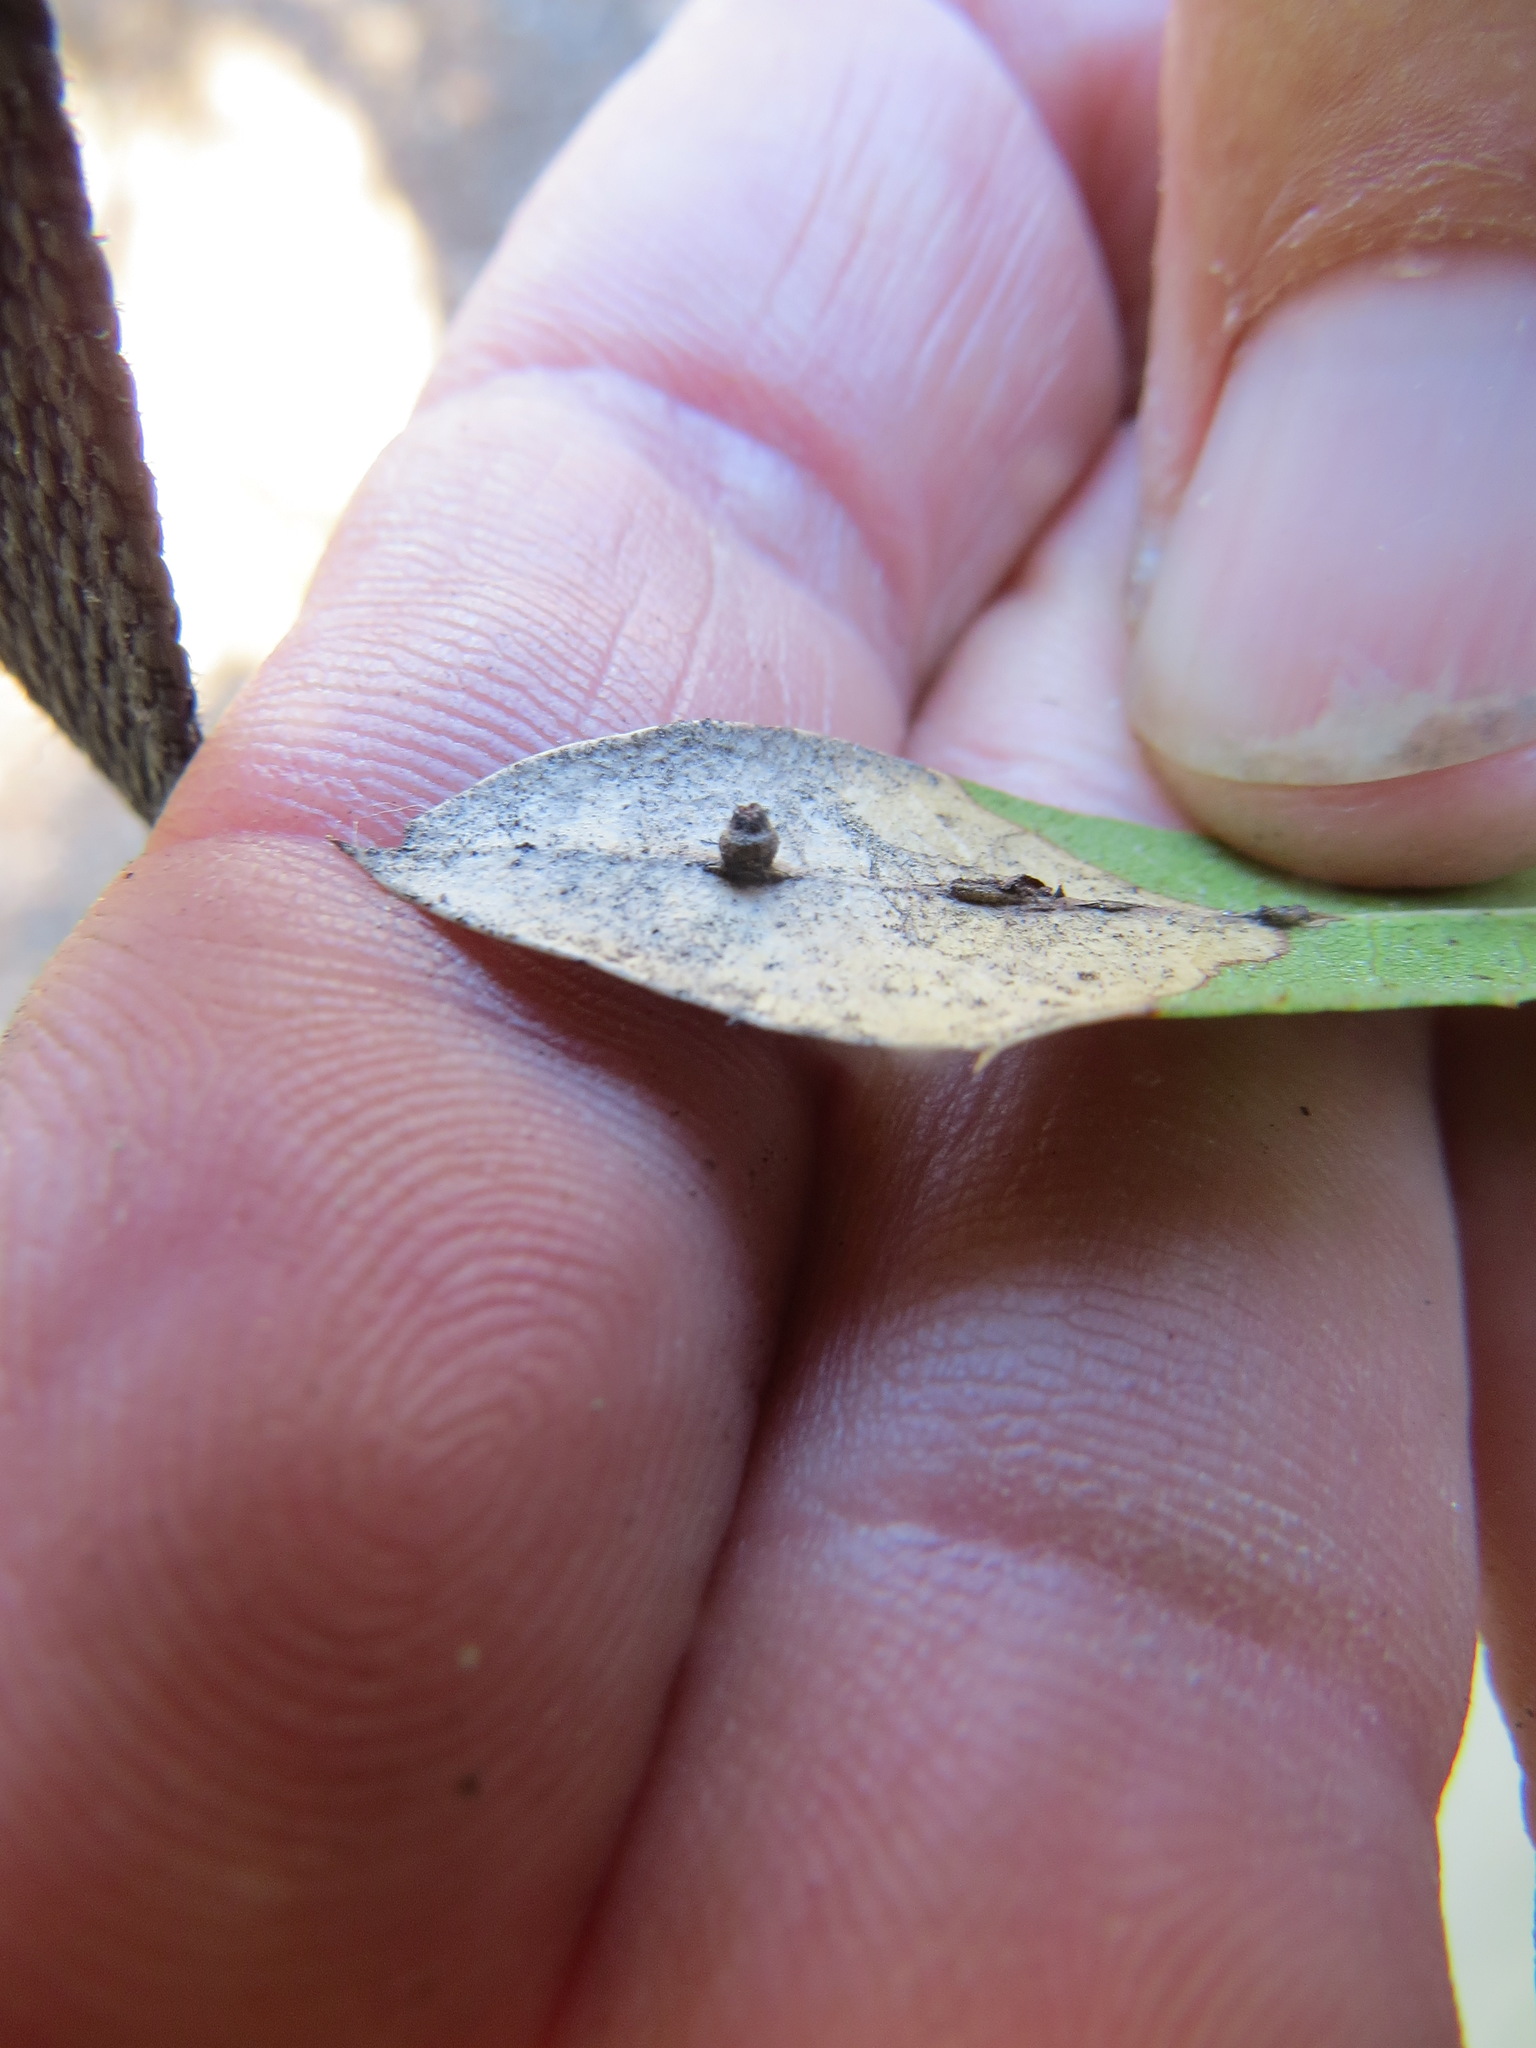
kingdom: Animalia
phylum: Arthropoda
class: Insecta
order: Hymenoptera
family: Cynipidae
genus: Callirhytis
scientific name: Callirhytis
